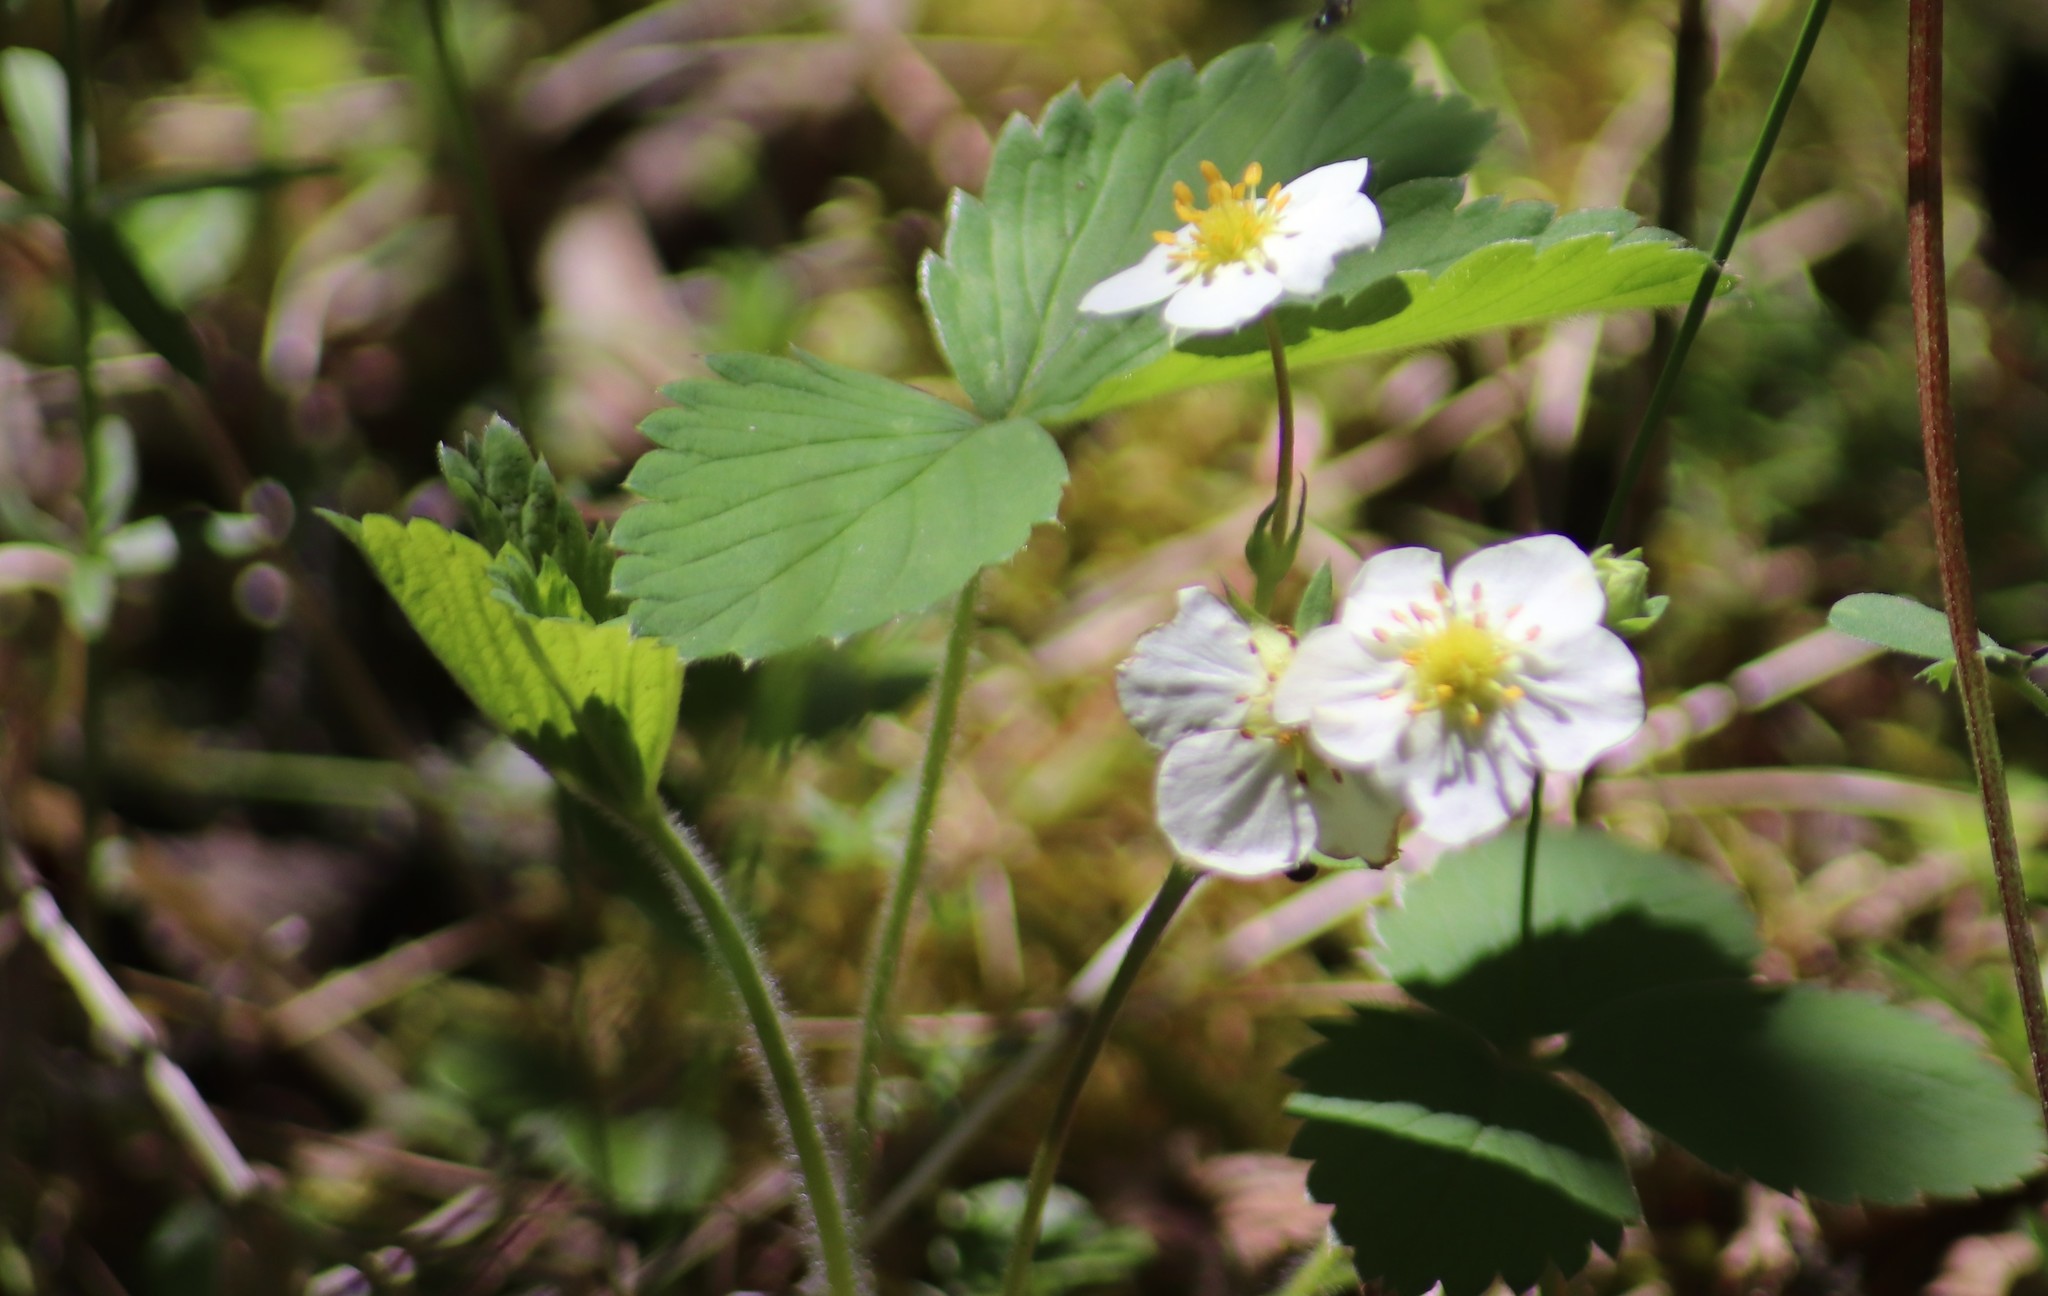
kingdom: Plantae
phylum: Tracheophyta
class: Magnoliopsida
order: Rosales
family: Rosaceae
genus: Fragaria
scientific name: Fragaria virginiana
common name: Thickleaved wild strawberry
